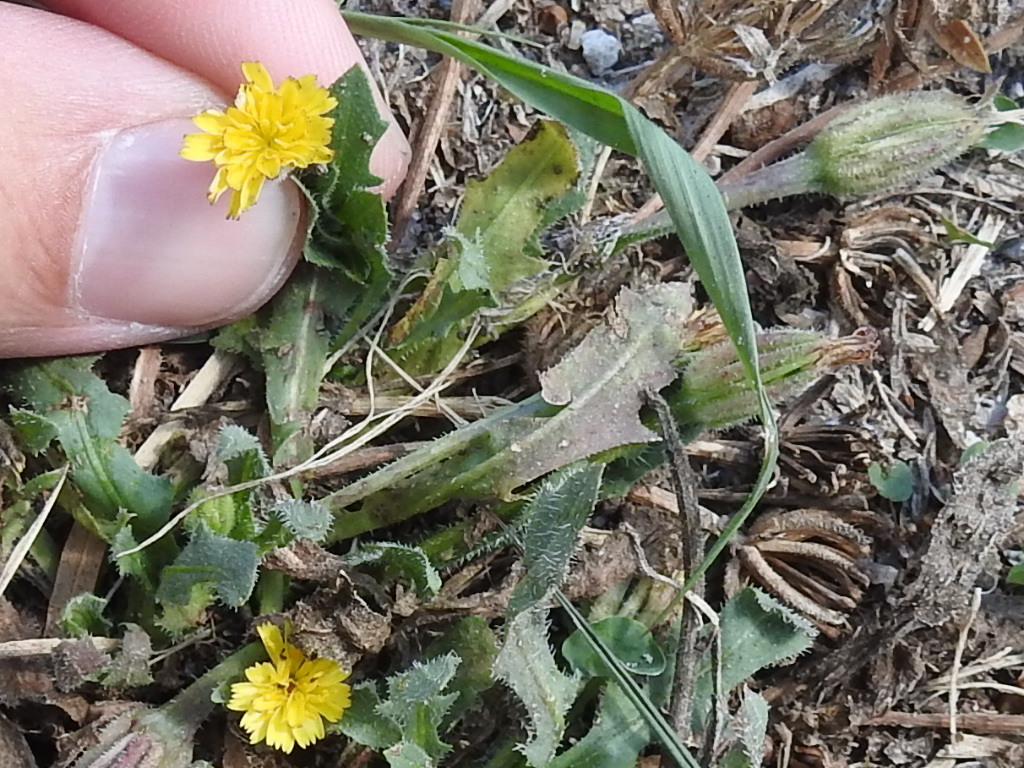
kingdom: Plantae
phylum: Tracheophyta
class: Magnoliopsida
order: Asterales
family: Asteraceae
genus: Hedypnois
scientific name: Hedypnois rhagadioloides
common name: Cretan weed
